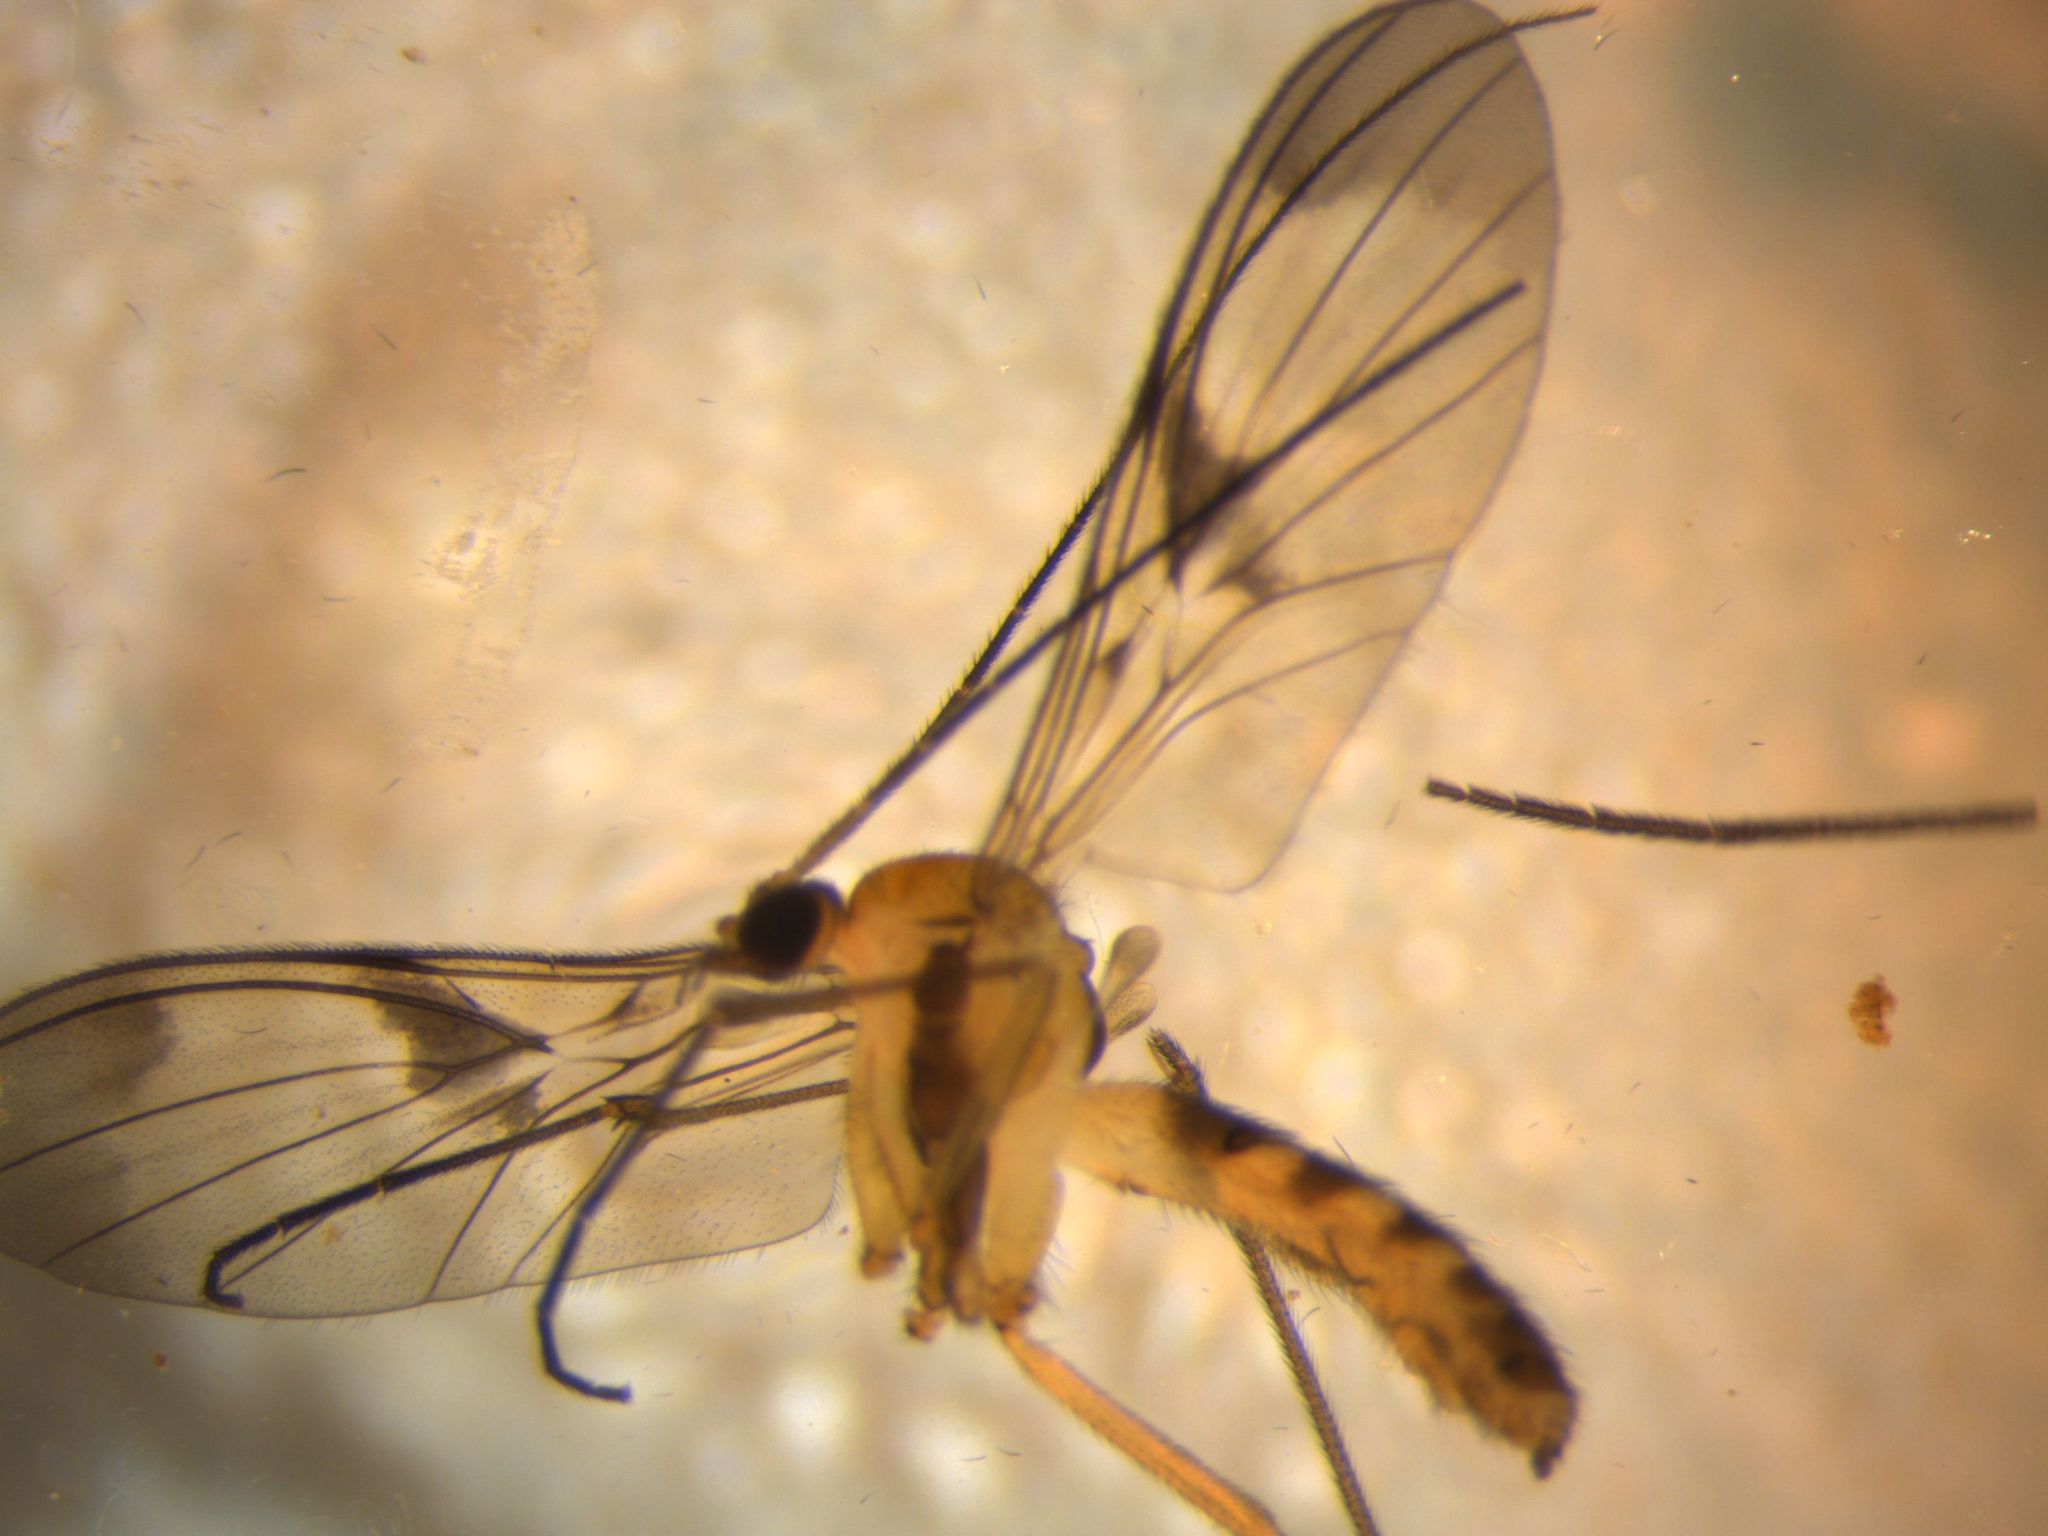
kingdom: Animalia
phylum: Arthropoda
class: Insecta
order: Diptera
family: Keroplatidae
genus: Macrocera
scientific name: Macrocera scoparia
